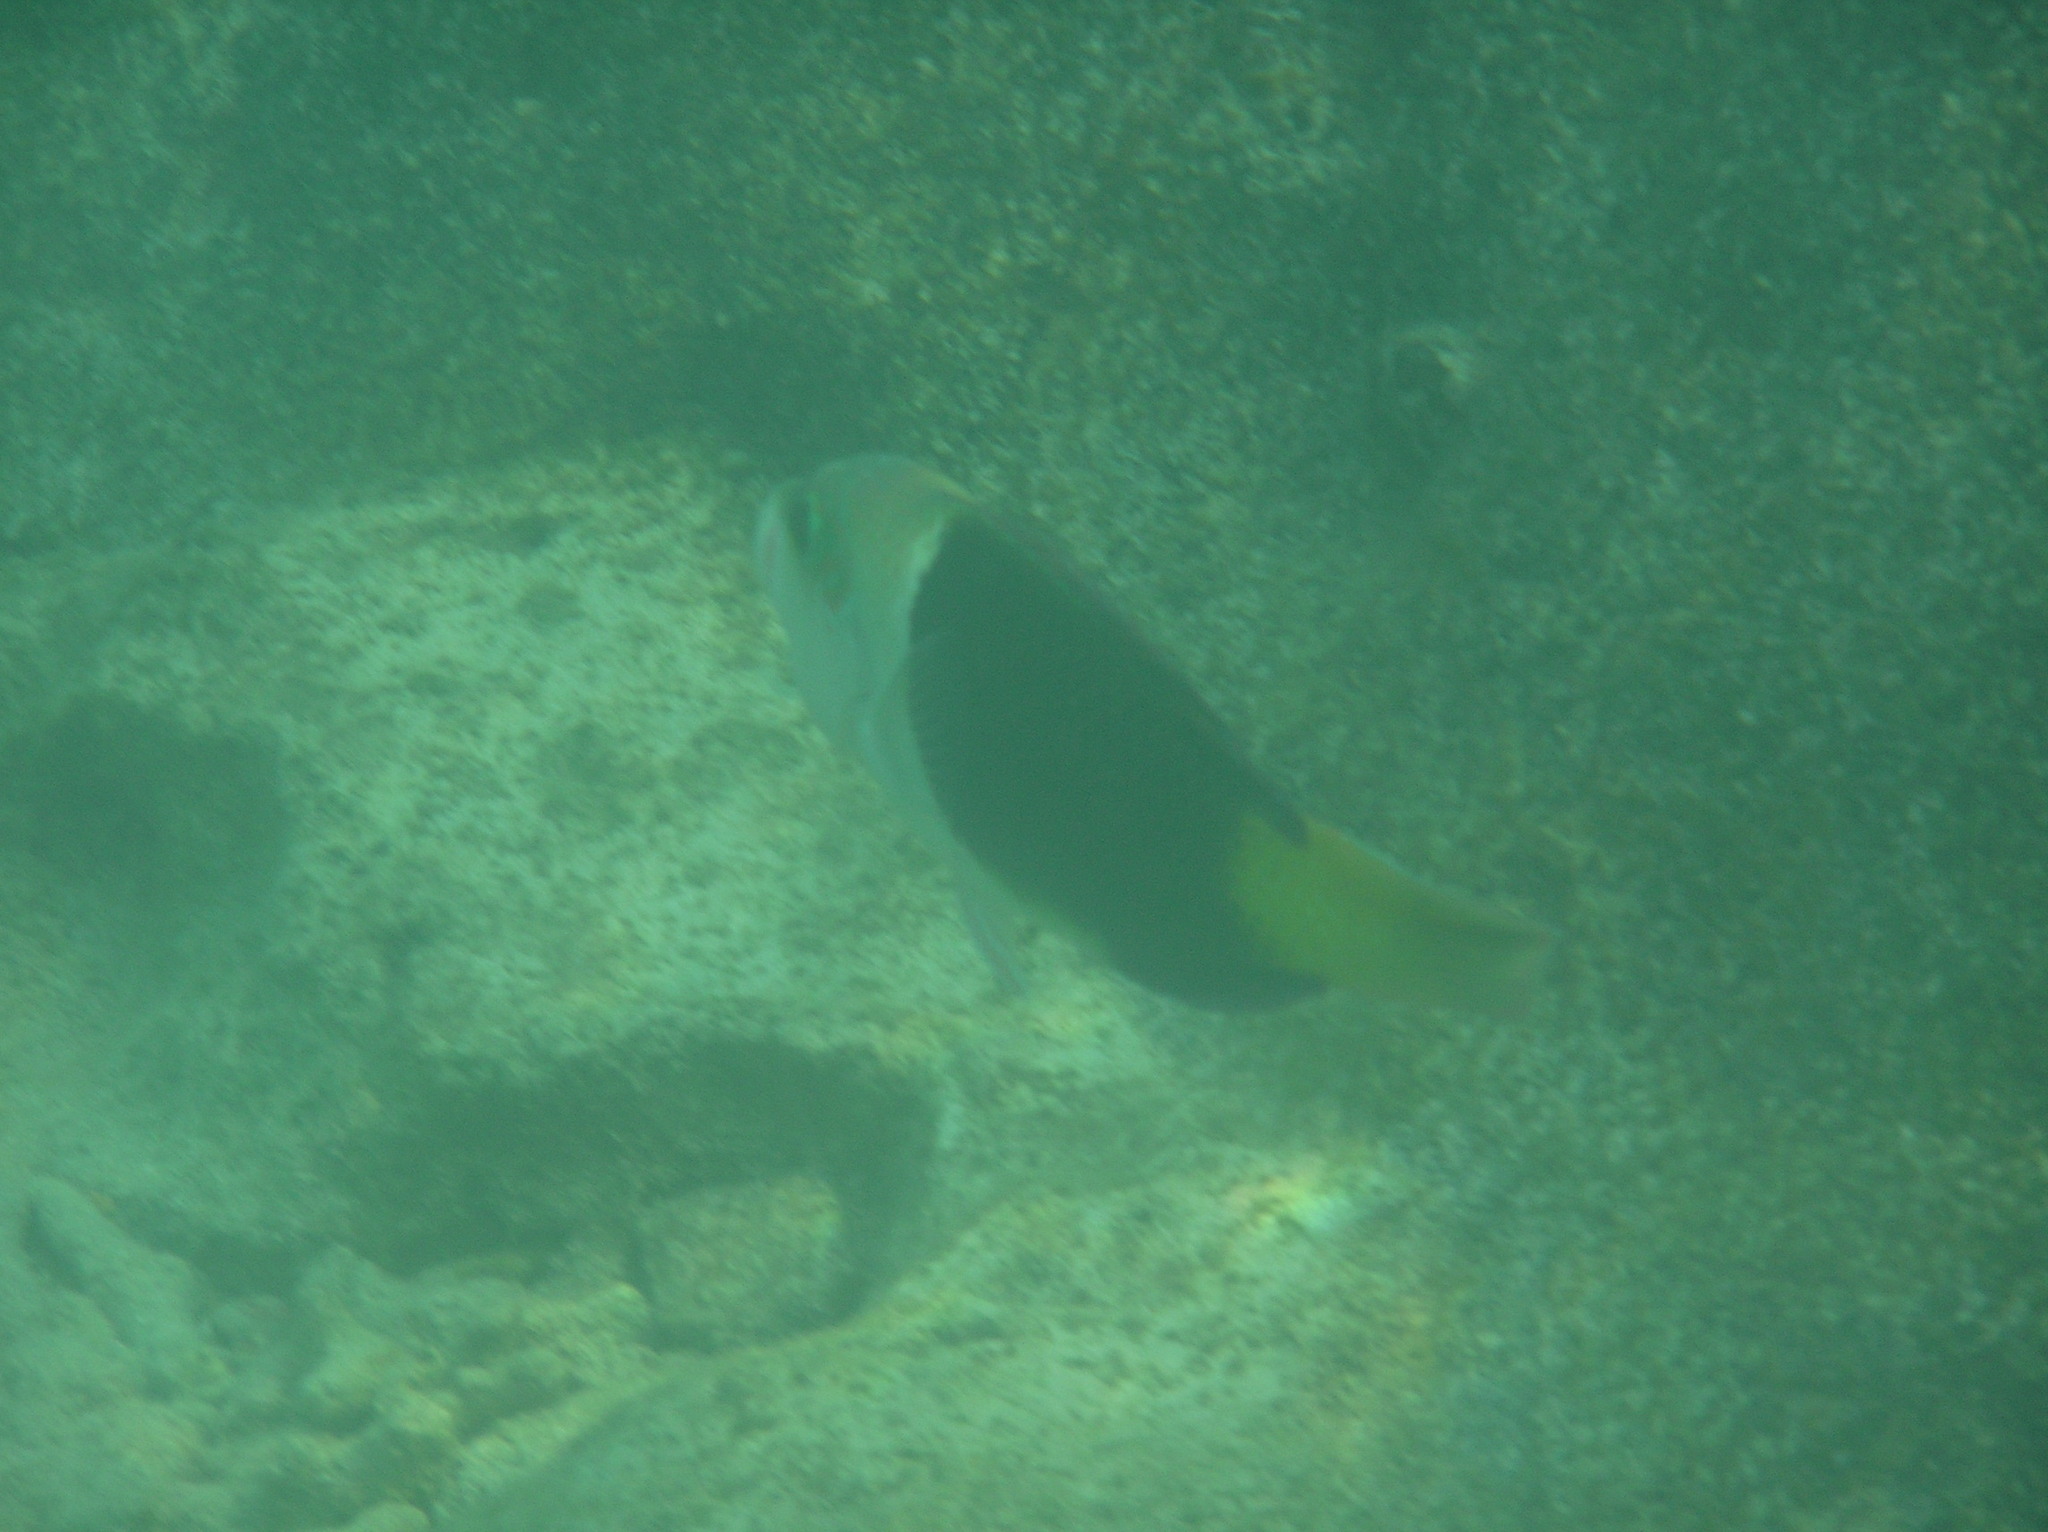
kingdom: Animalia
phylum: Chordata
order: Perciformes
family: Labridae
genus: Hemigymnus
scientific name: Hemigymnus melapterus
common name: Blackeye thicklip
